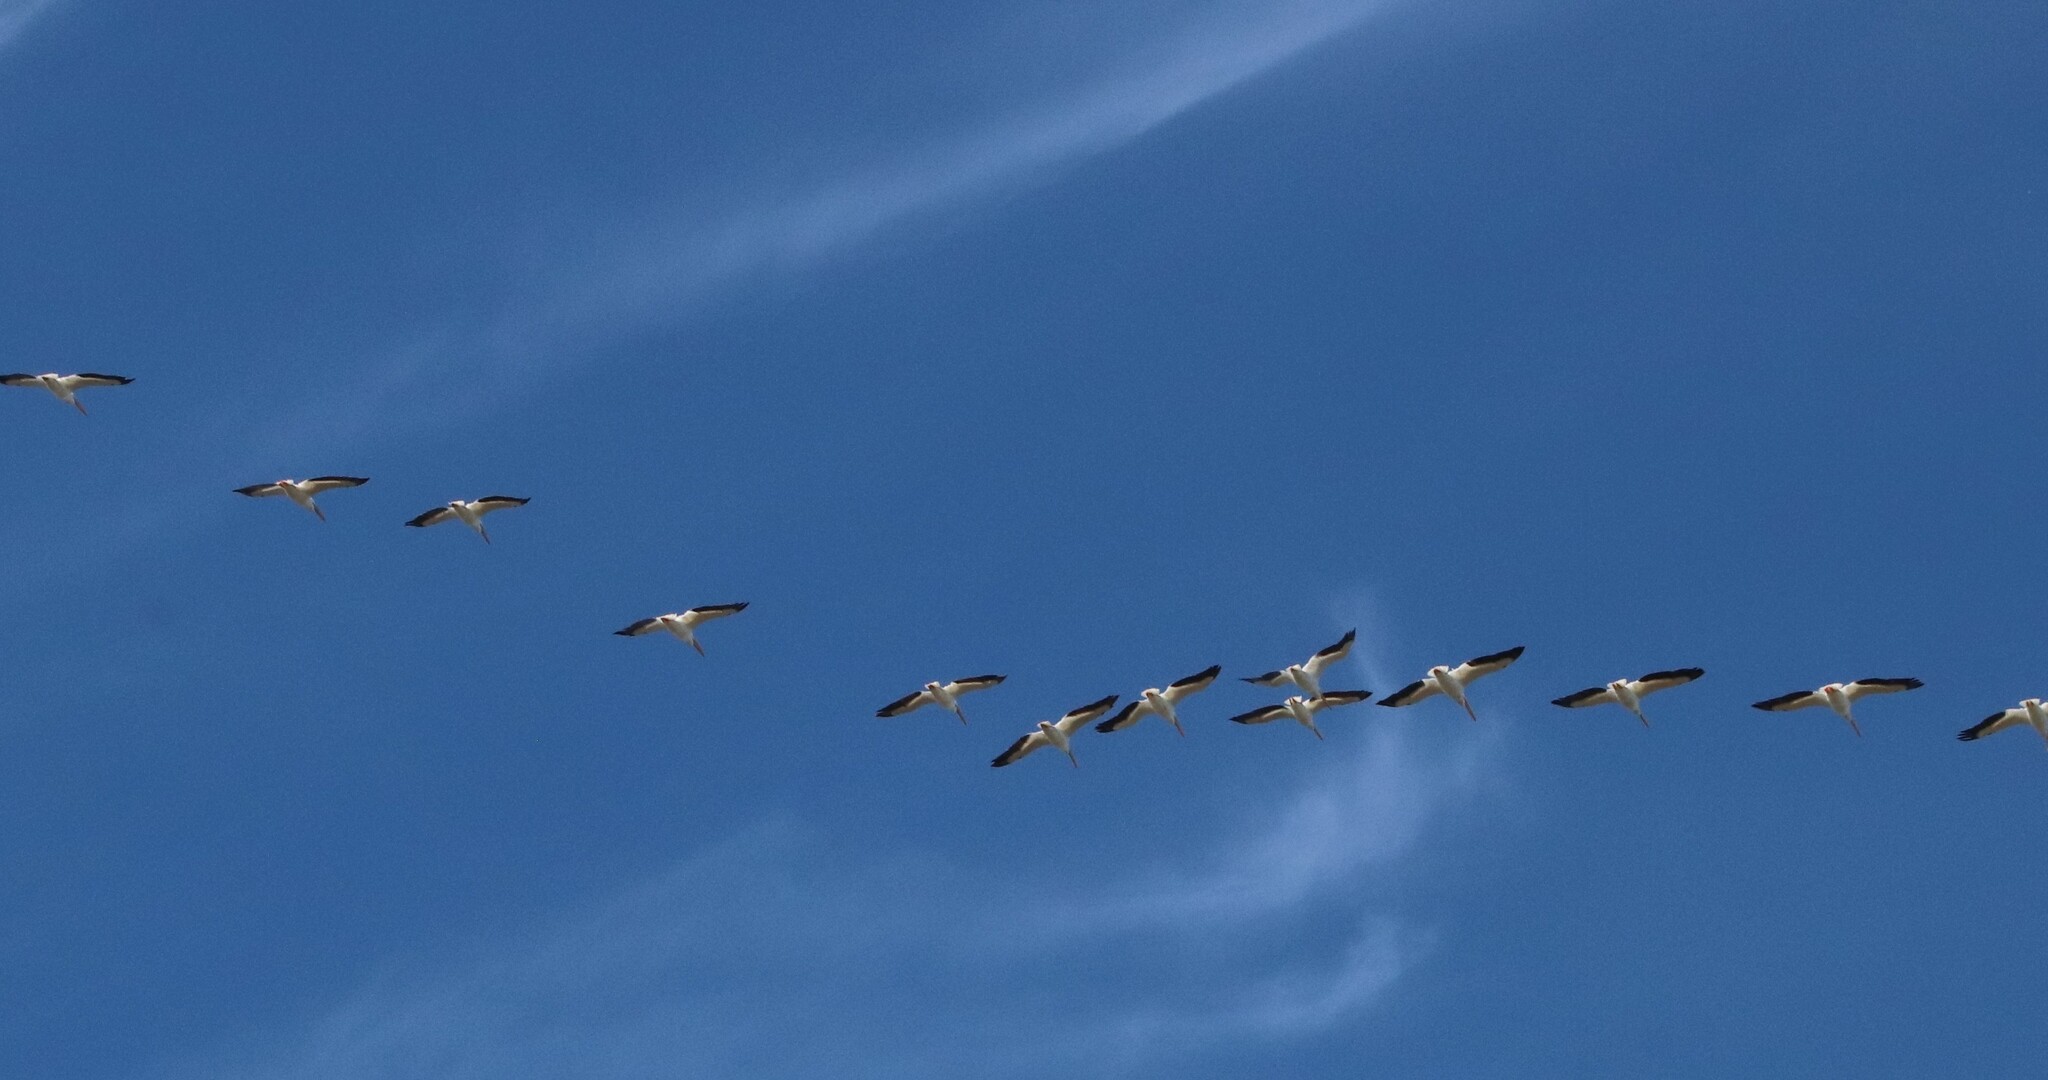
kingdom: Animalia
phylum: Chordata
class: Aves
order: Pelecaniformes
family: Pelecanidae
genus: Pelecanus
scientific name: Pelecanus erythrorhynchos
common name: American white pelican
